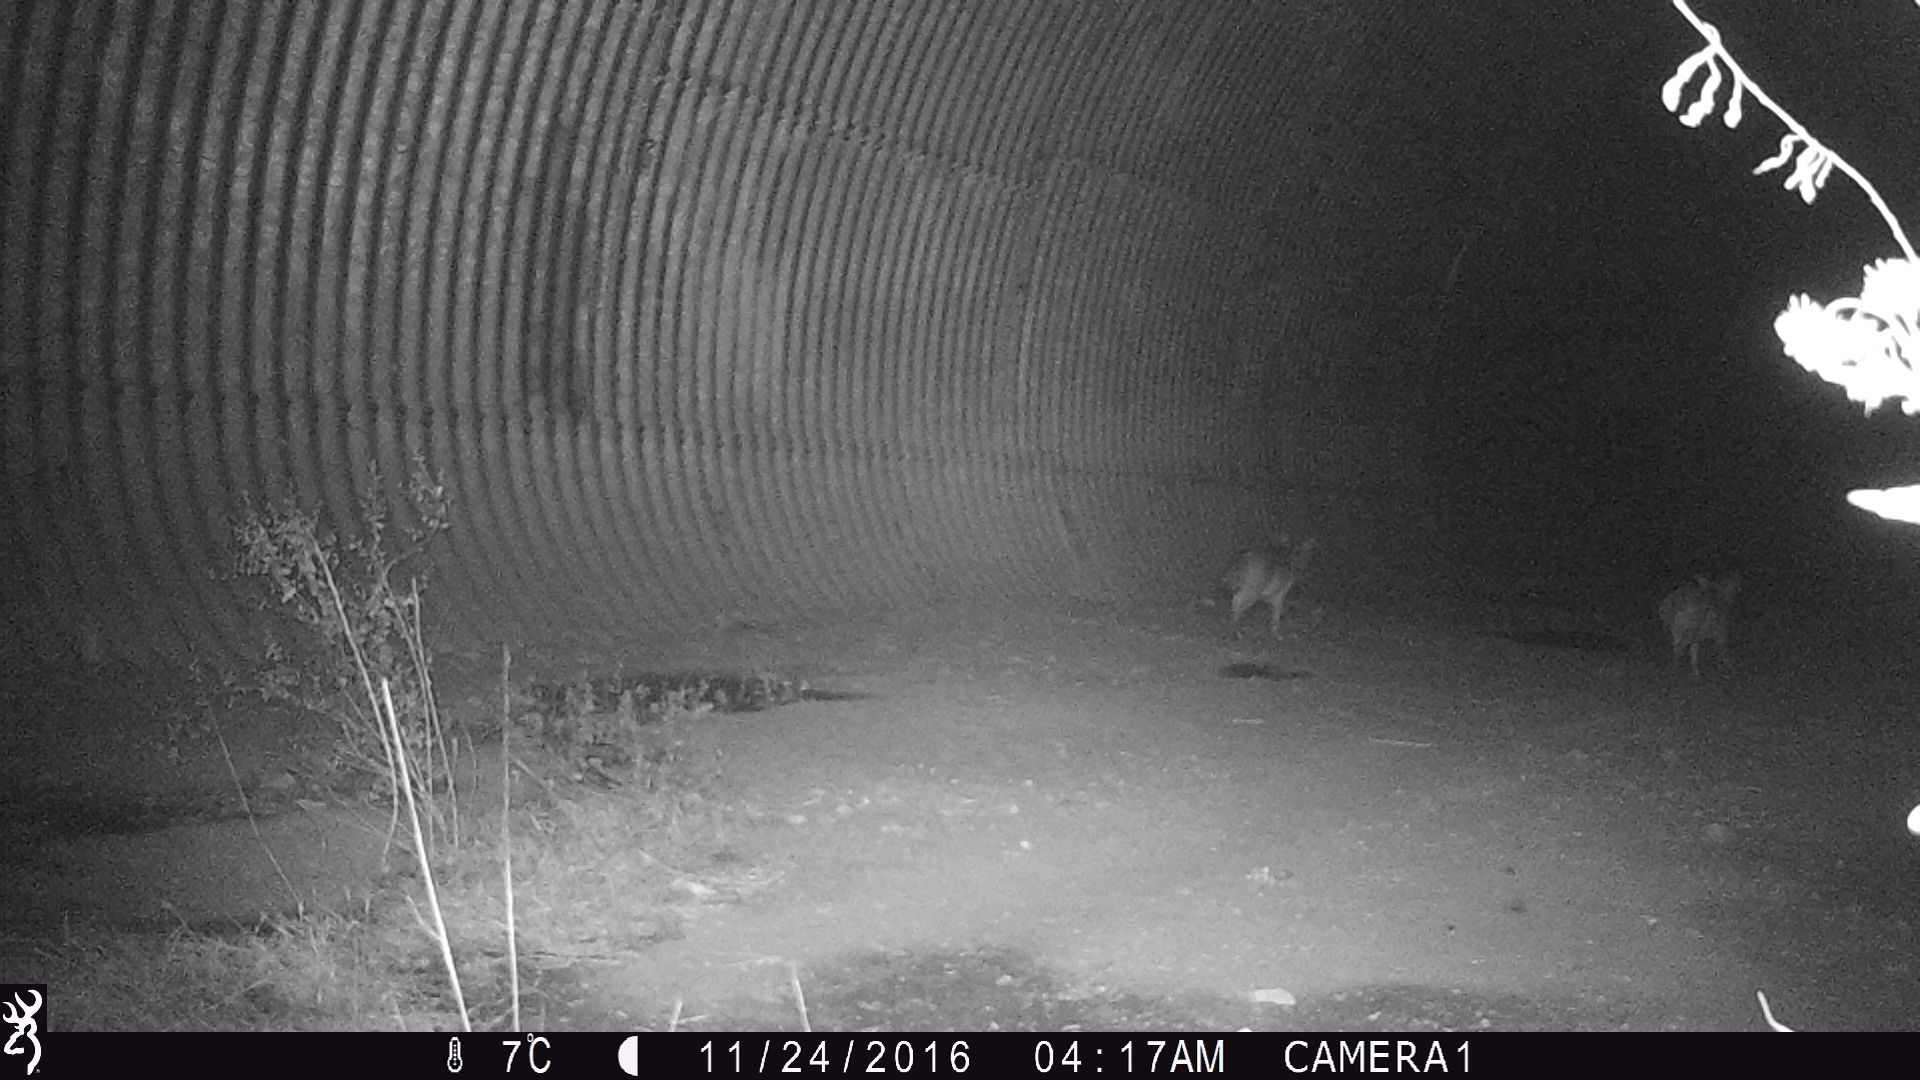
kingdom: Animalia
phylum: Chordata
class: Mammalia
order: Carnivora
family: Canidae
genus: Canis
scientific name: Canis latrans
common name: Coyote
